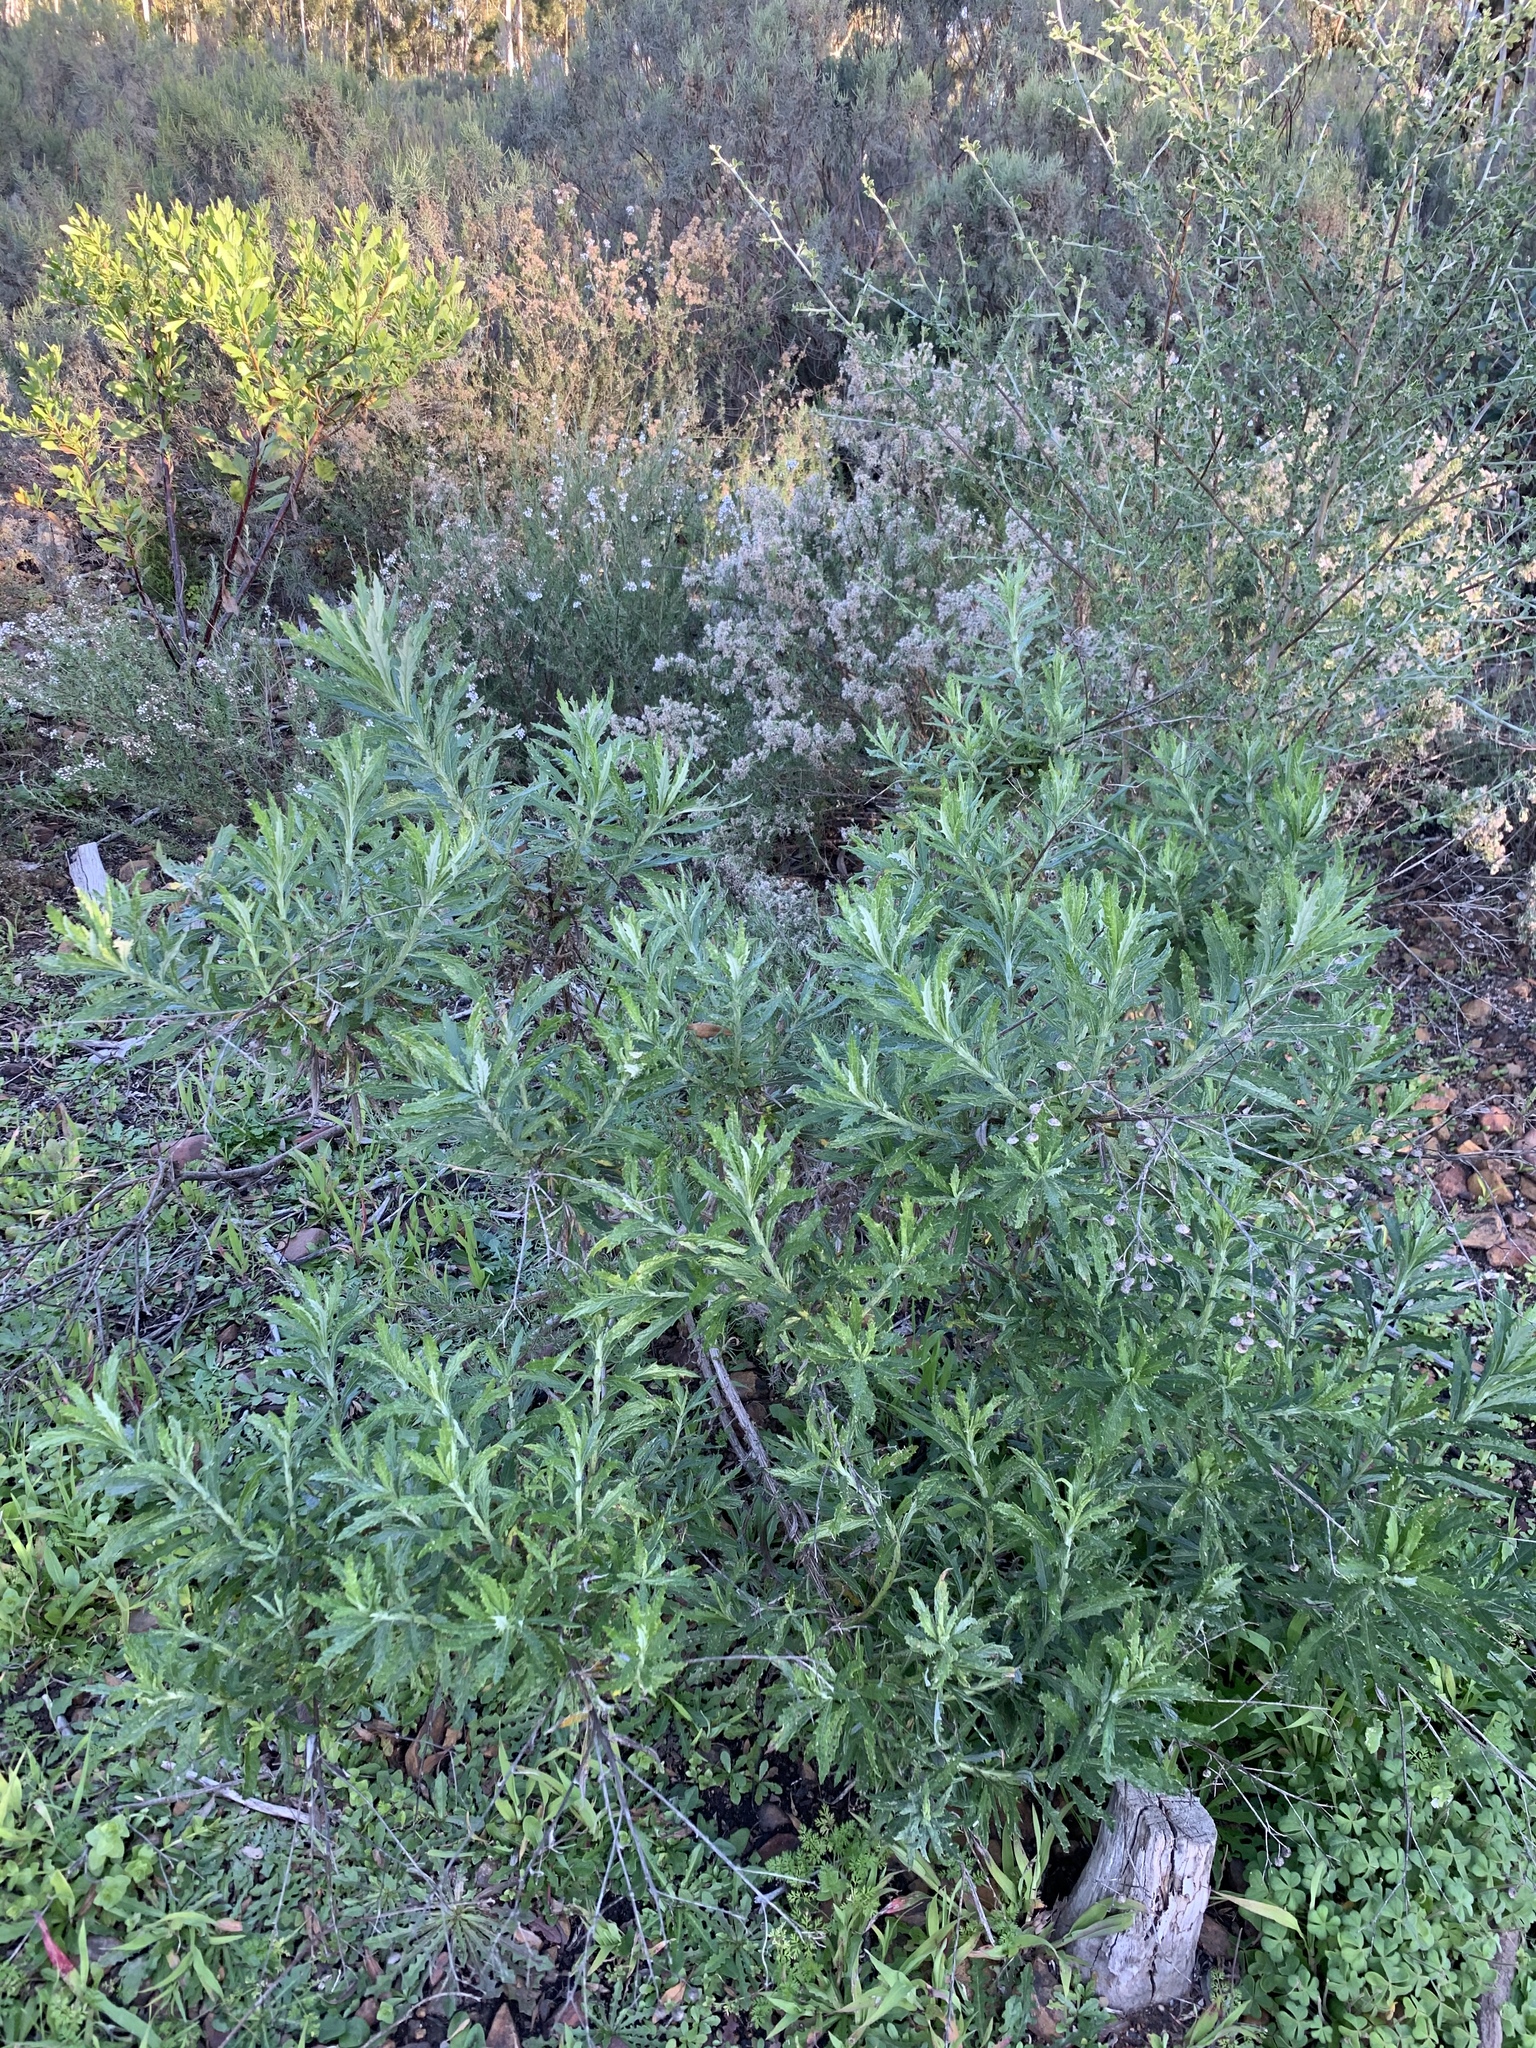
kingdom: Plantae
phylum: Tracheophyta
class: Magnoliopsida
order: Asterales
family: Asteraceae
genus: Senecio
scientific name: Senecio pterophorus
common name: Shoddy ragwort
